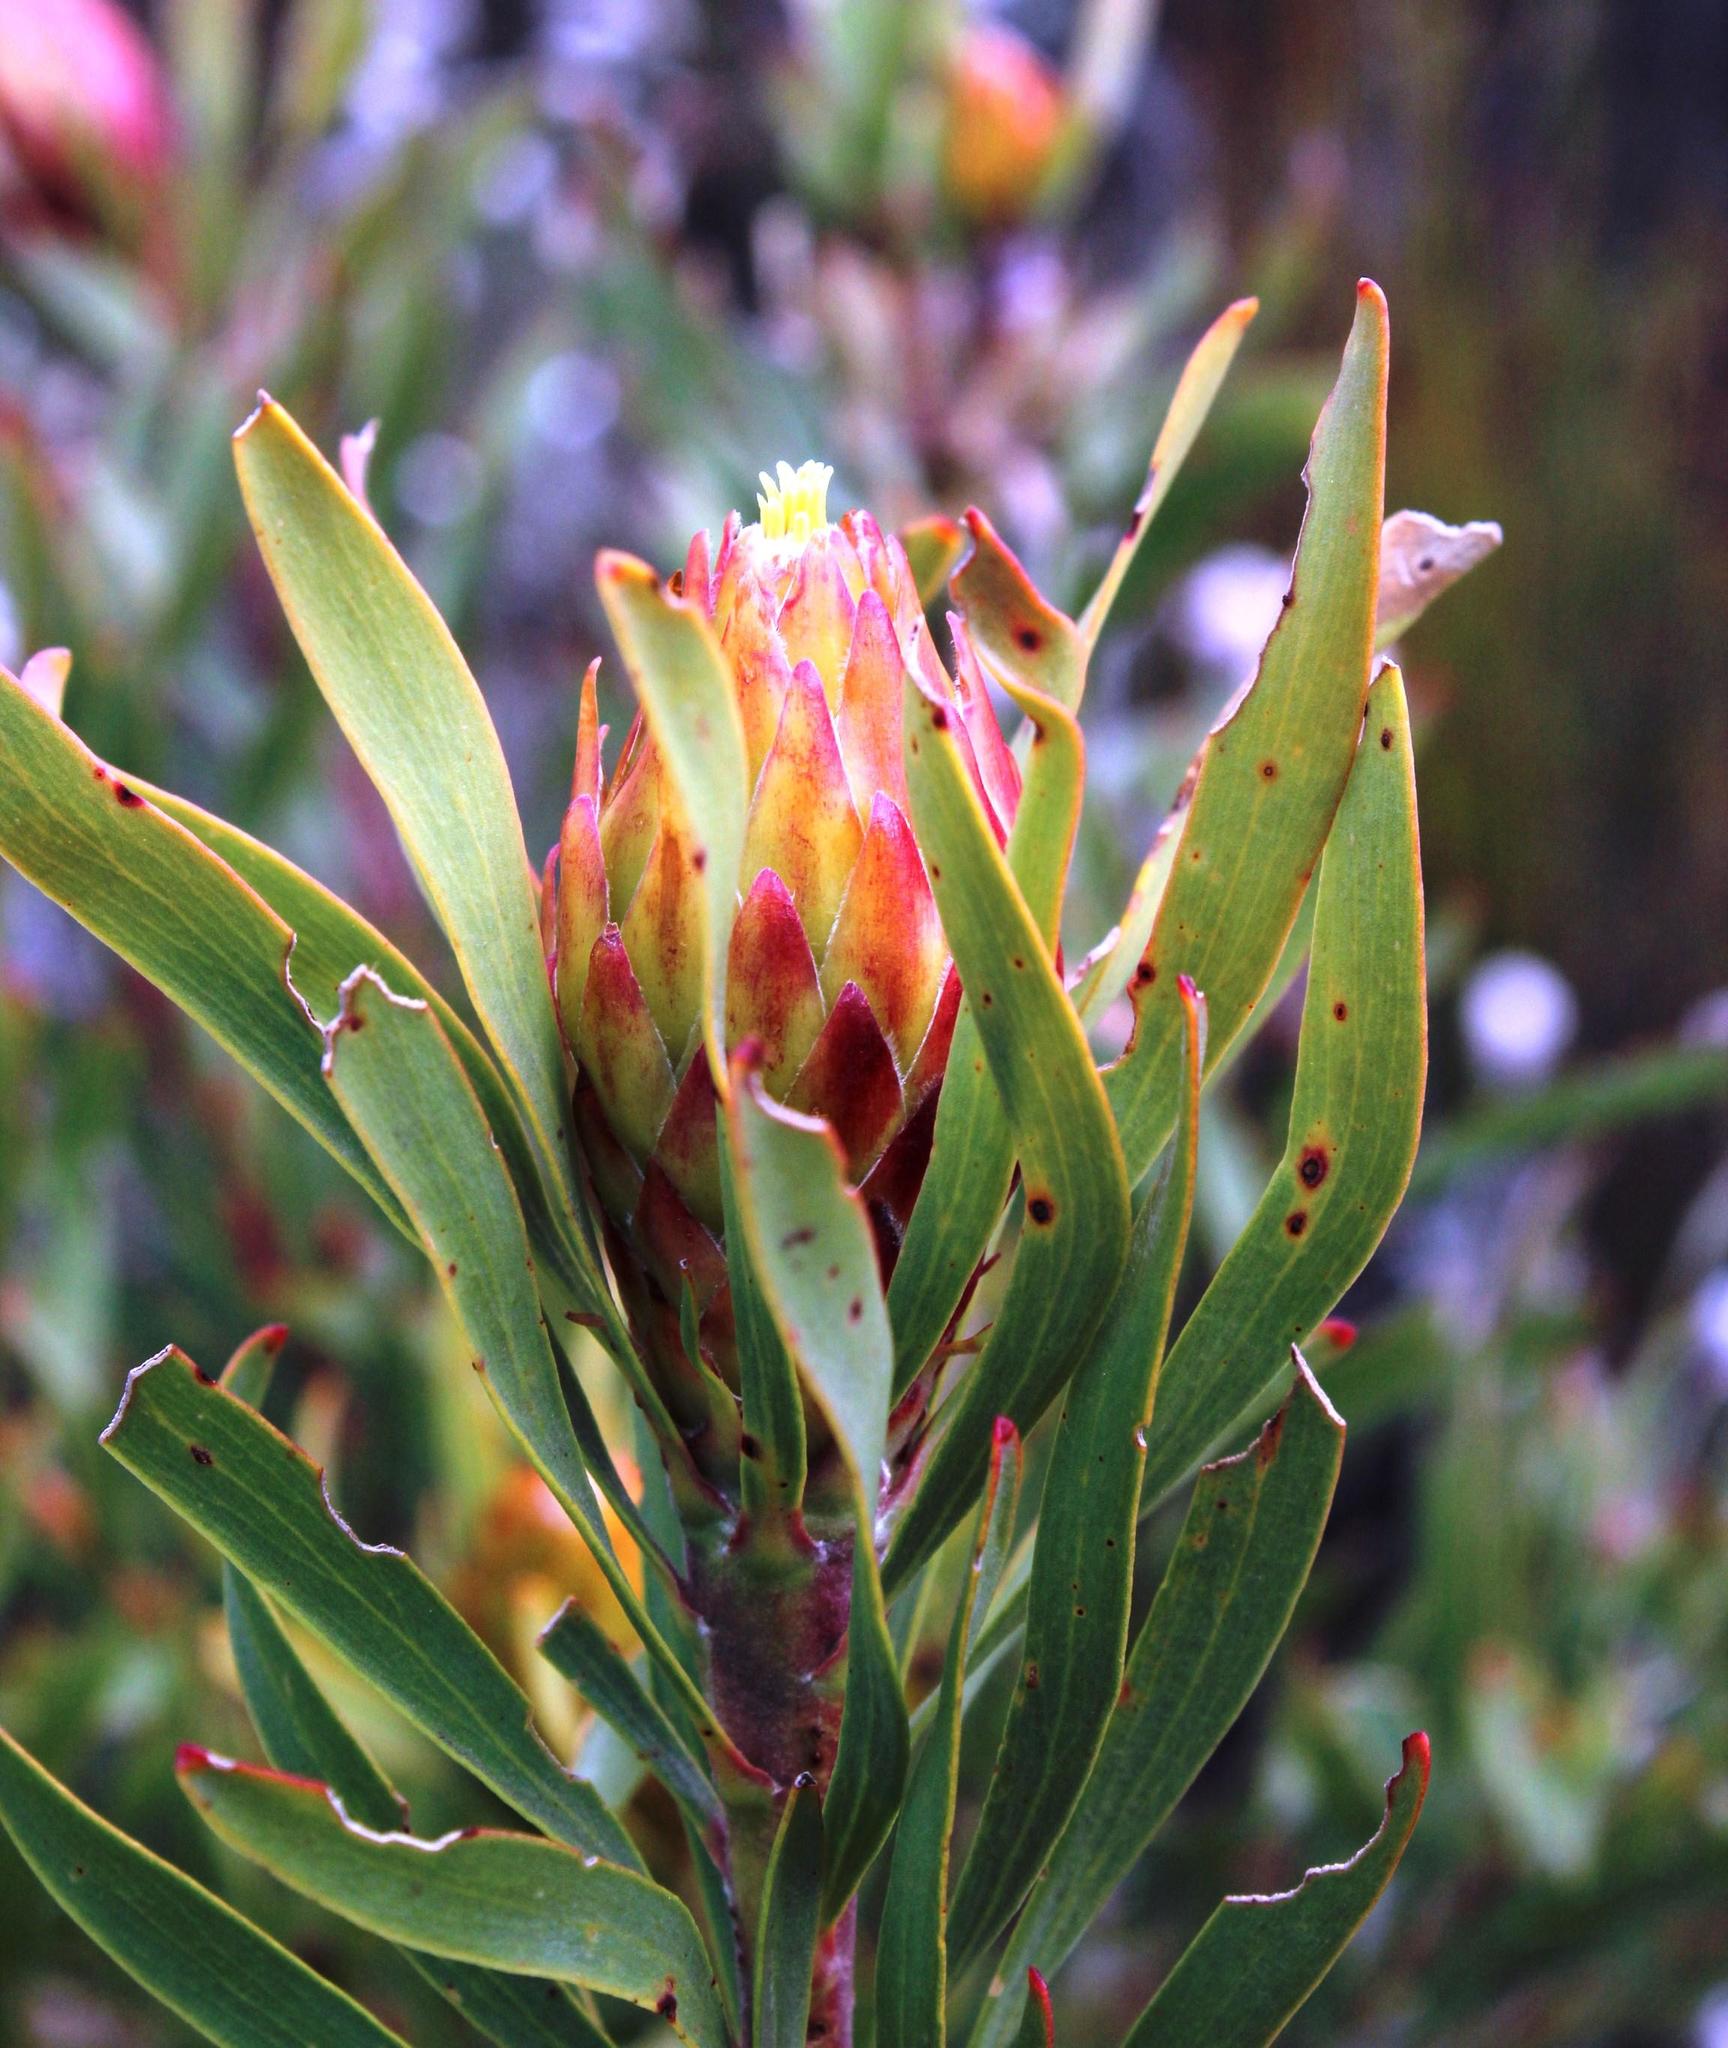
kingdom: Plantae
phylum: Tracheophyta
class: Magnoliopsida
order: Proteales
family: Proteaceae
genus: Leucadendron
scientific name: Leucadendron rubrum
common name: Spinning top
